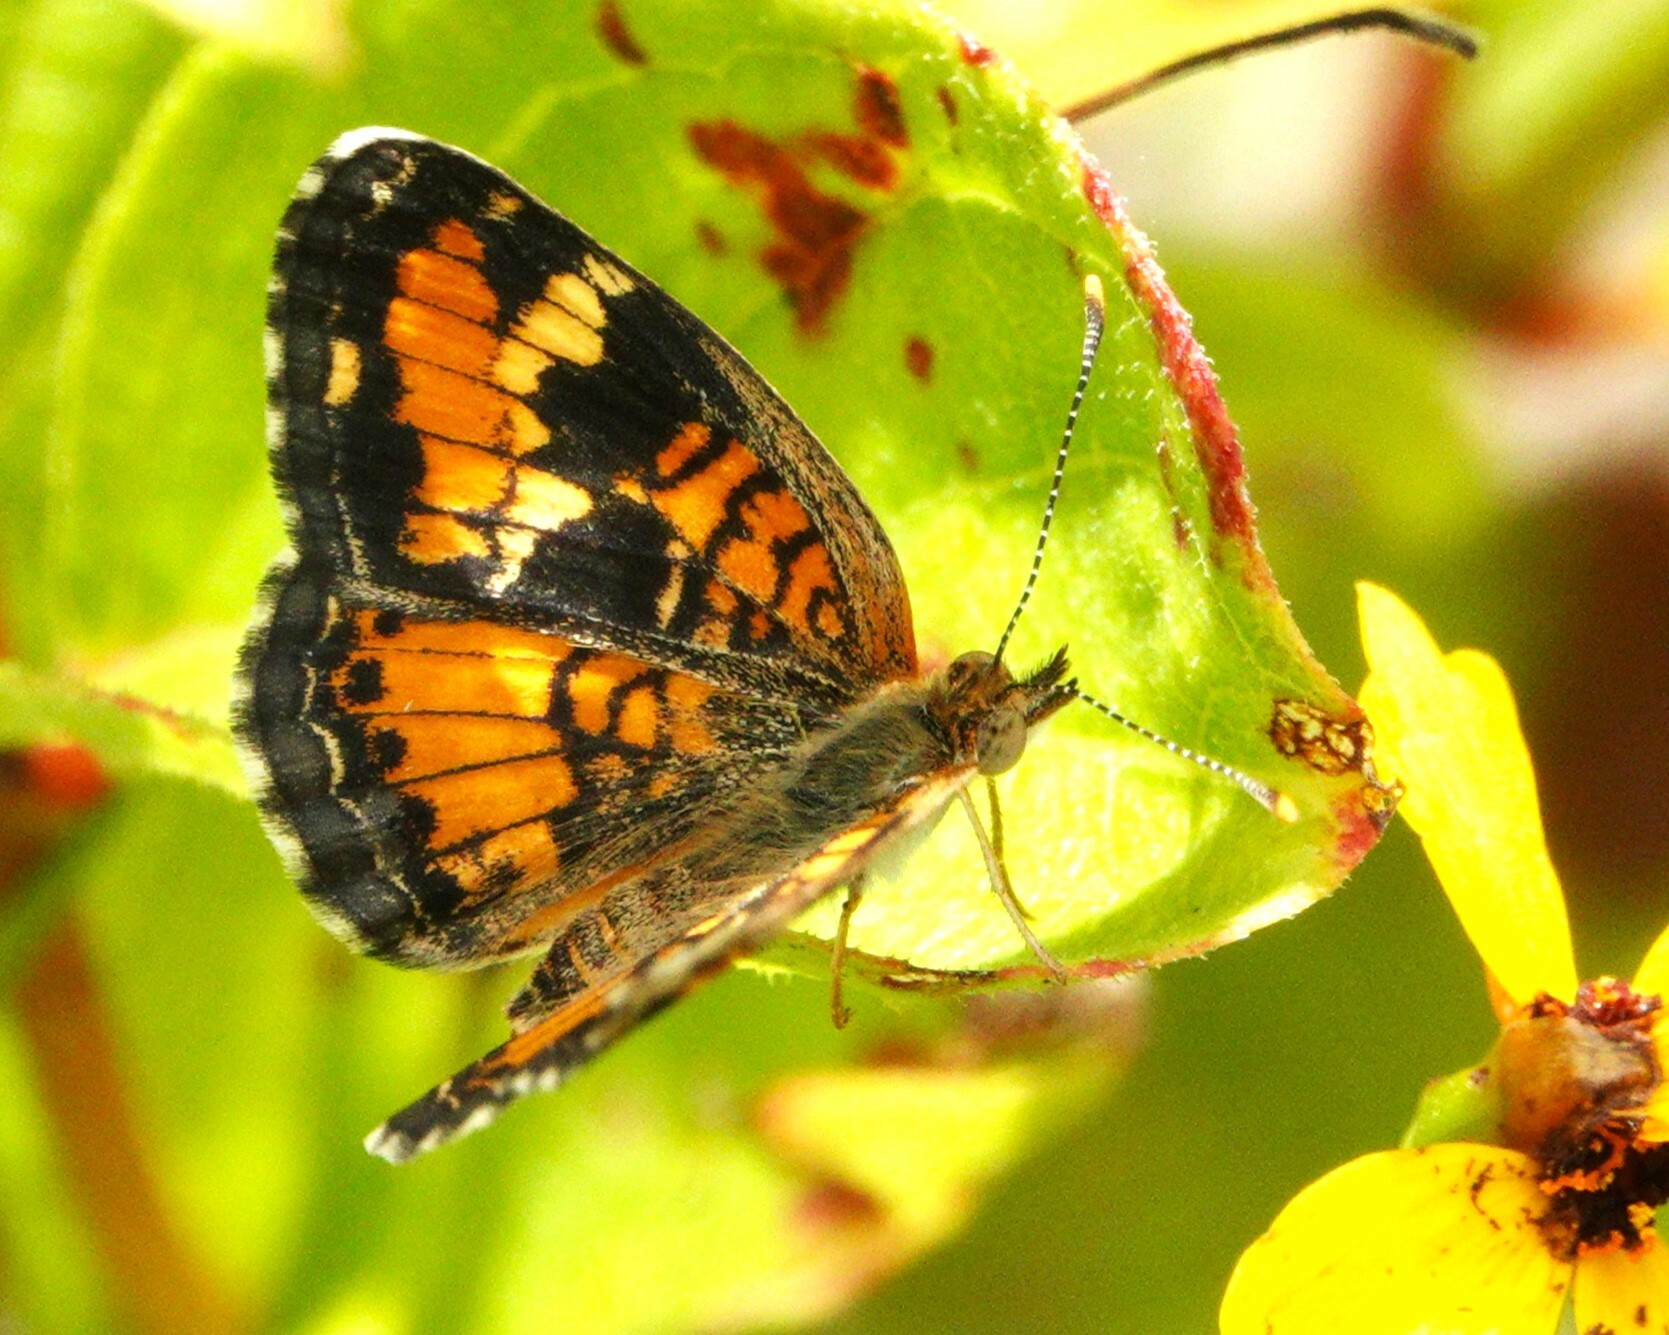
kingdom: Animalia
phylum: Arthropoda
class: Insecta
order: Lepidoptera
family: Nymphalidae
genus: Phyciodes
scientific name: Phyciodes phaon
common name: Phaon crescent
